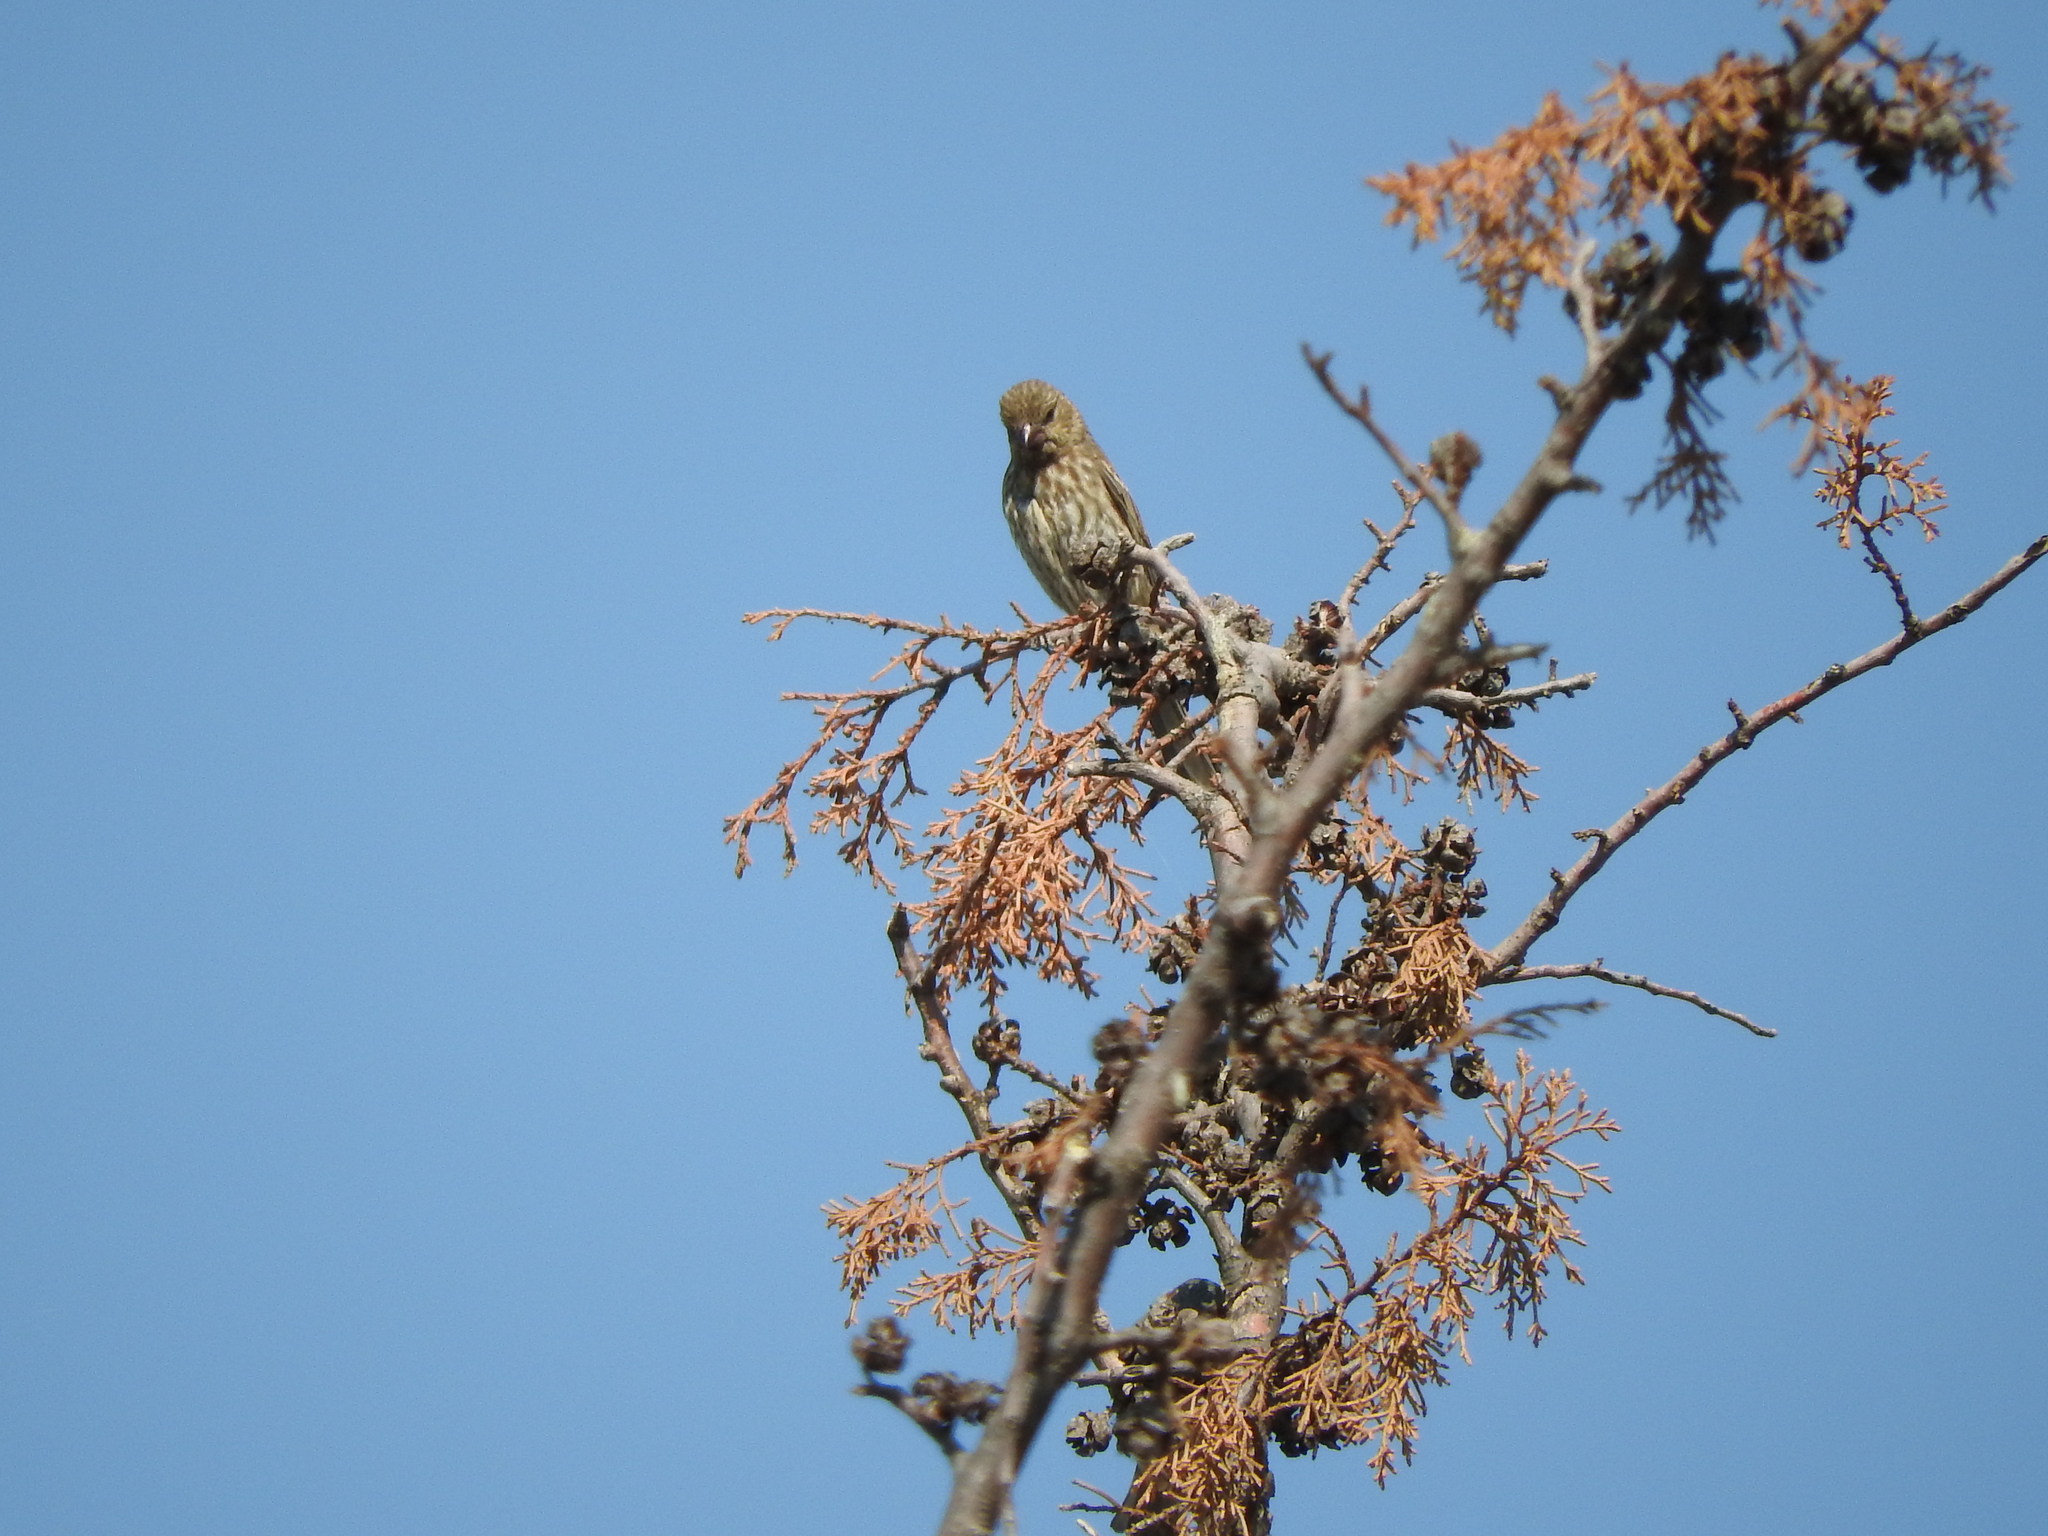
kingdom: Animalia
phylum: Chordata
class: Aves
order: Passeriformes
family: Fringillidae
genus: Haemorhous
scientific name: Haemorhous mexicanus
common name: House finch
